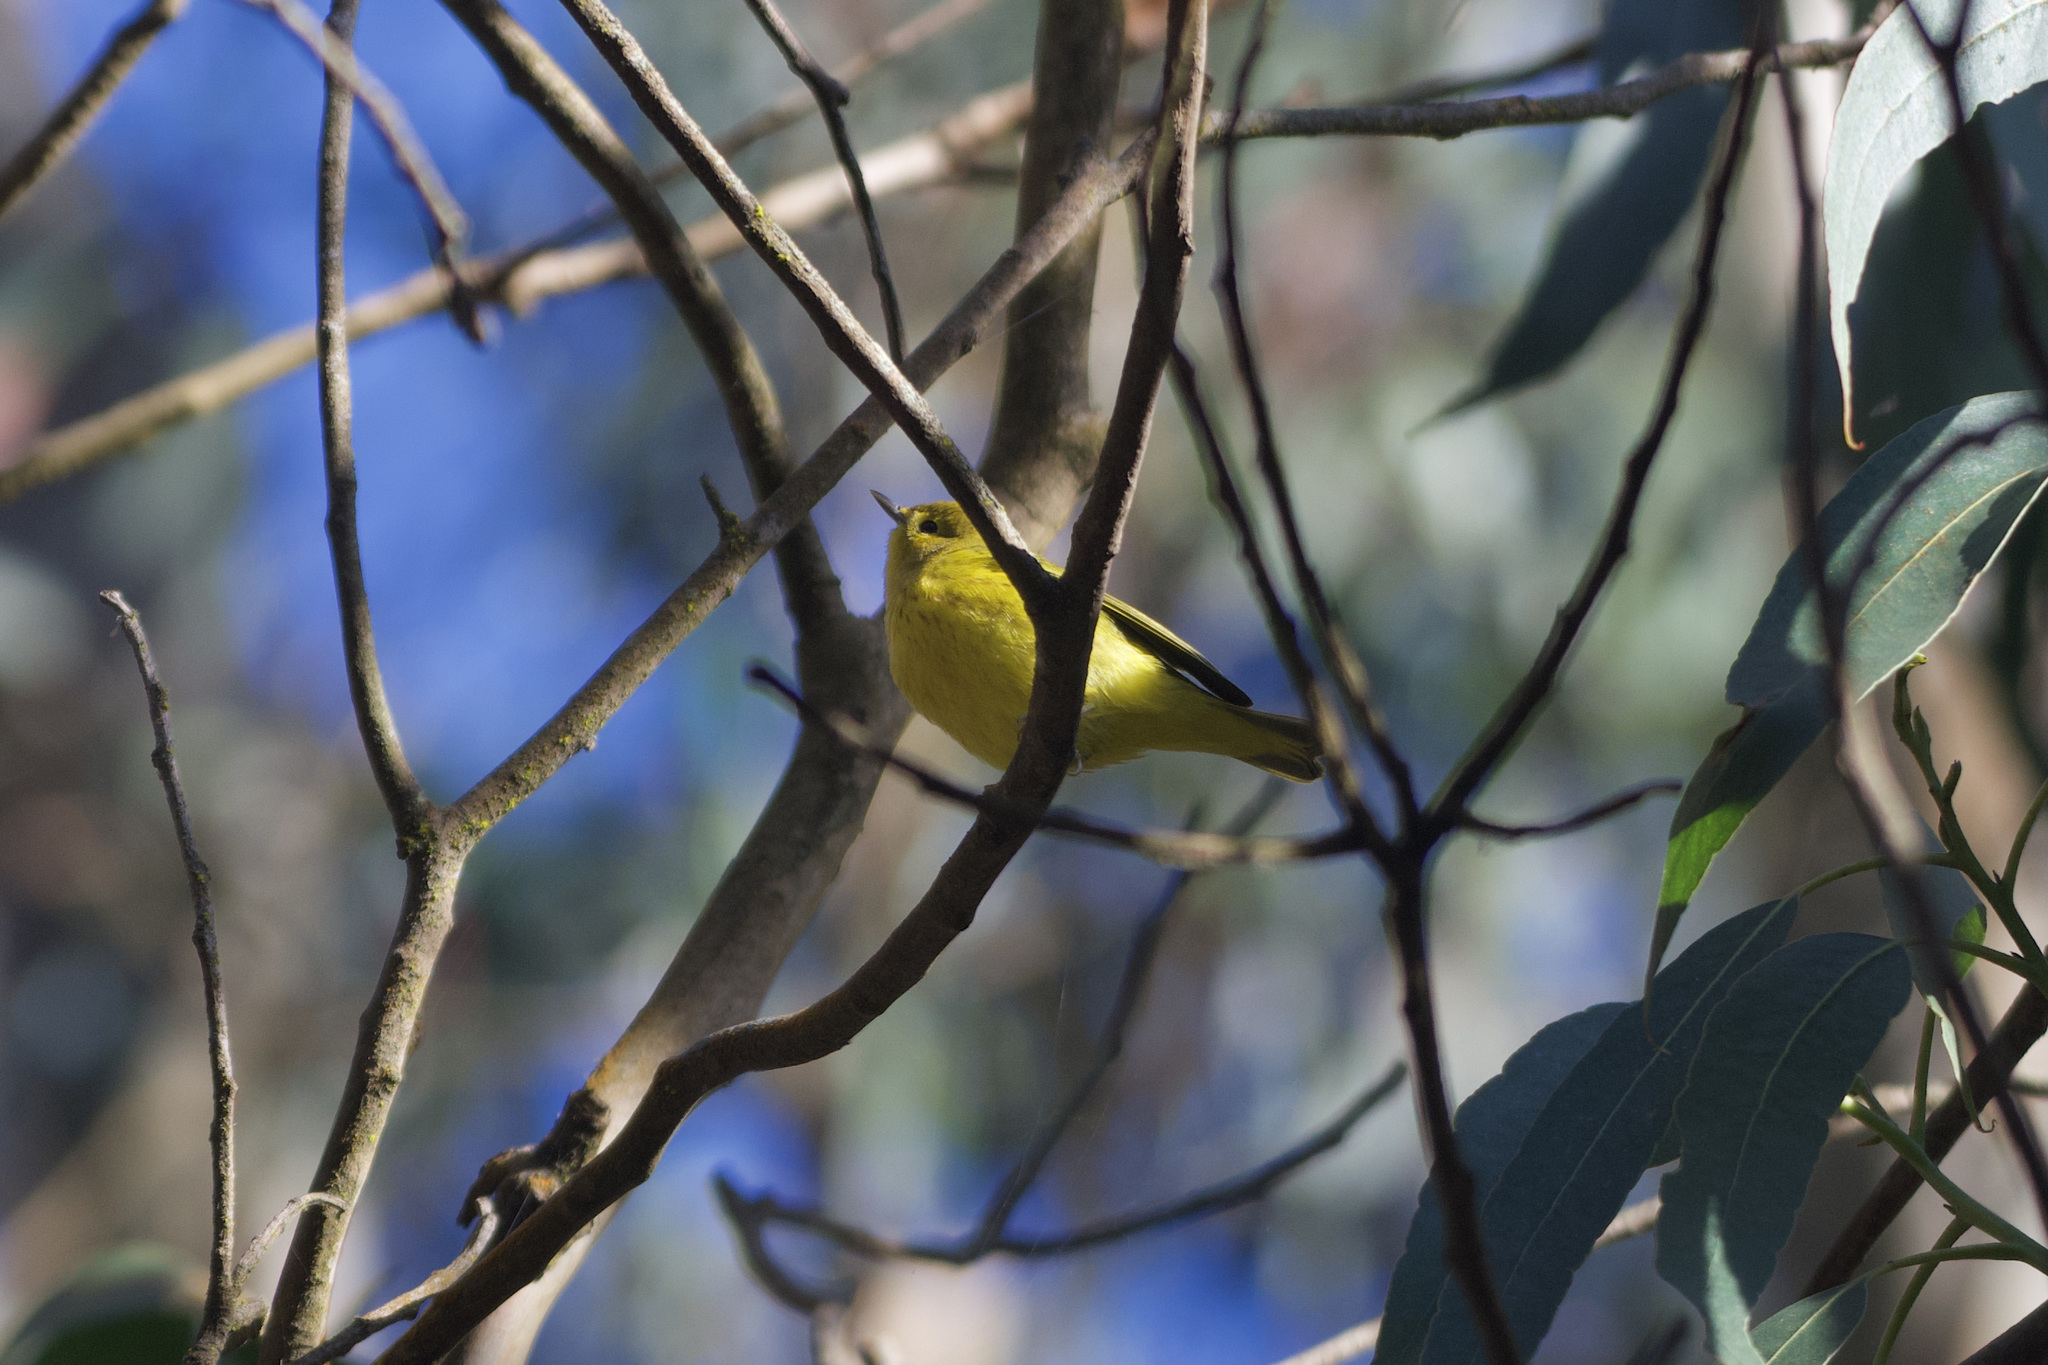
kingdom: Animalia
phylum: Chordata
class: Aves
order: Passeriformes
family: Parulidae
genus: Setophaga
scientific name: Setophaga petechia
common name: Yellow warbler
